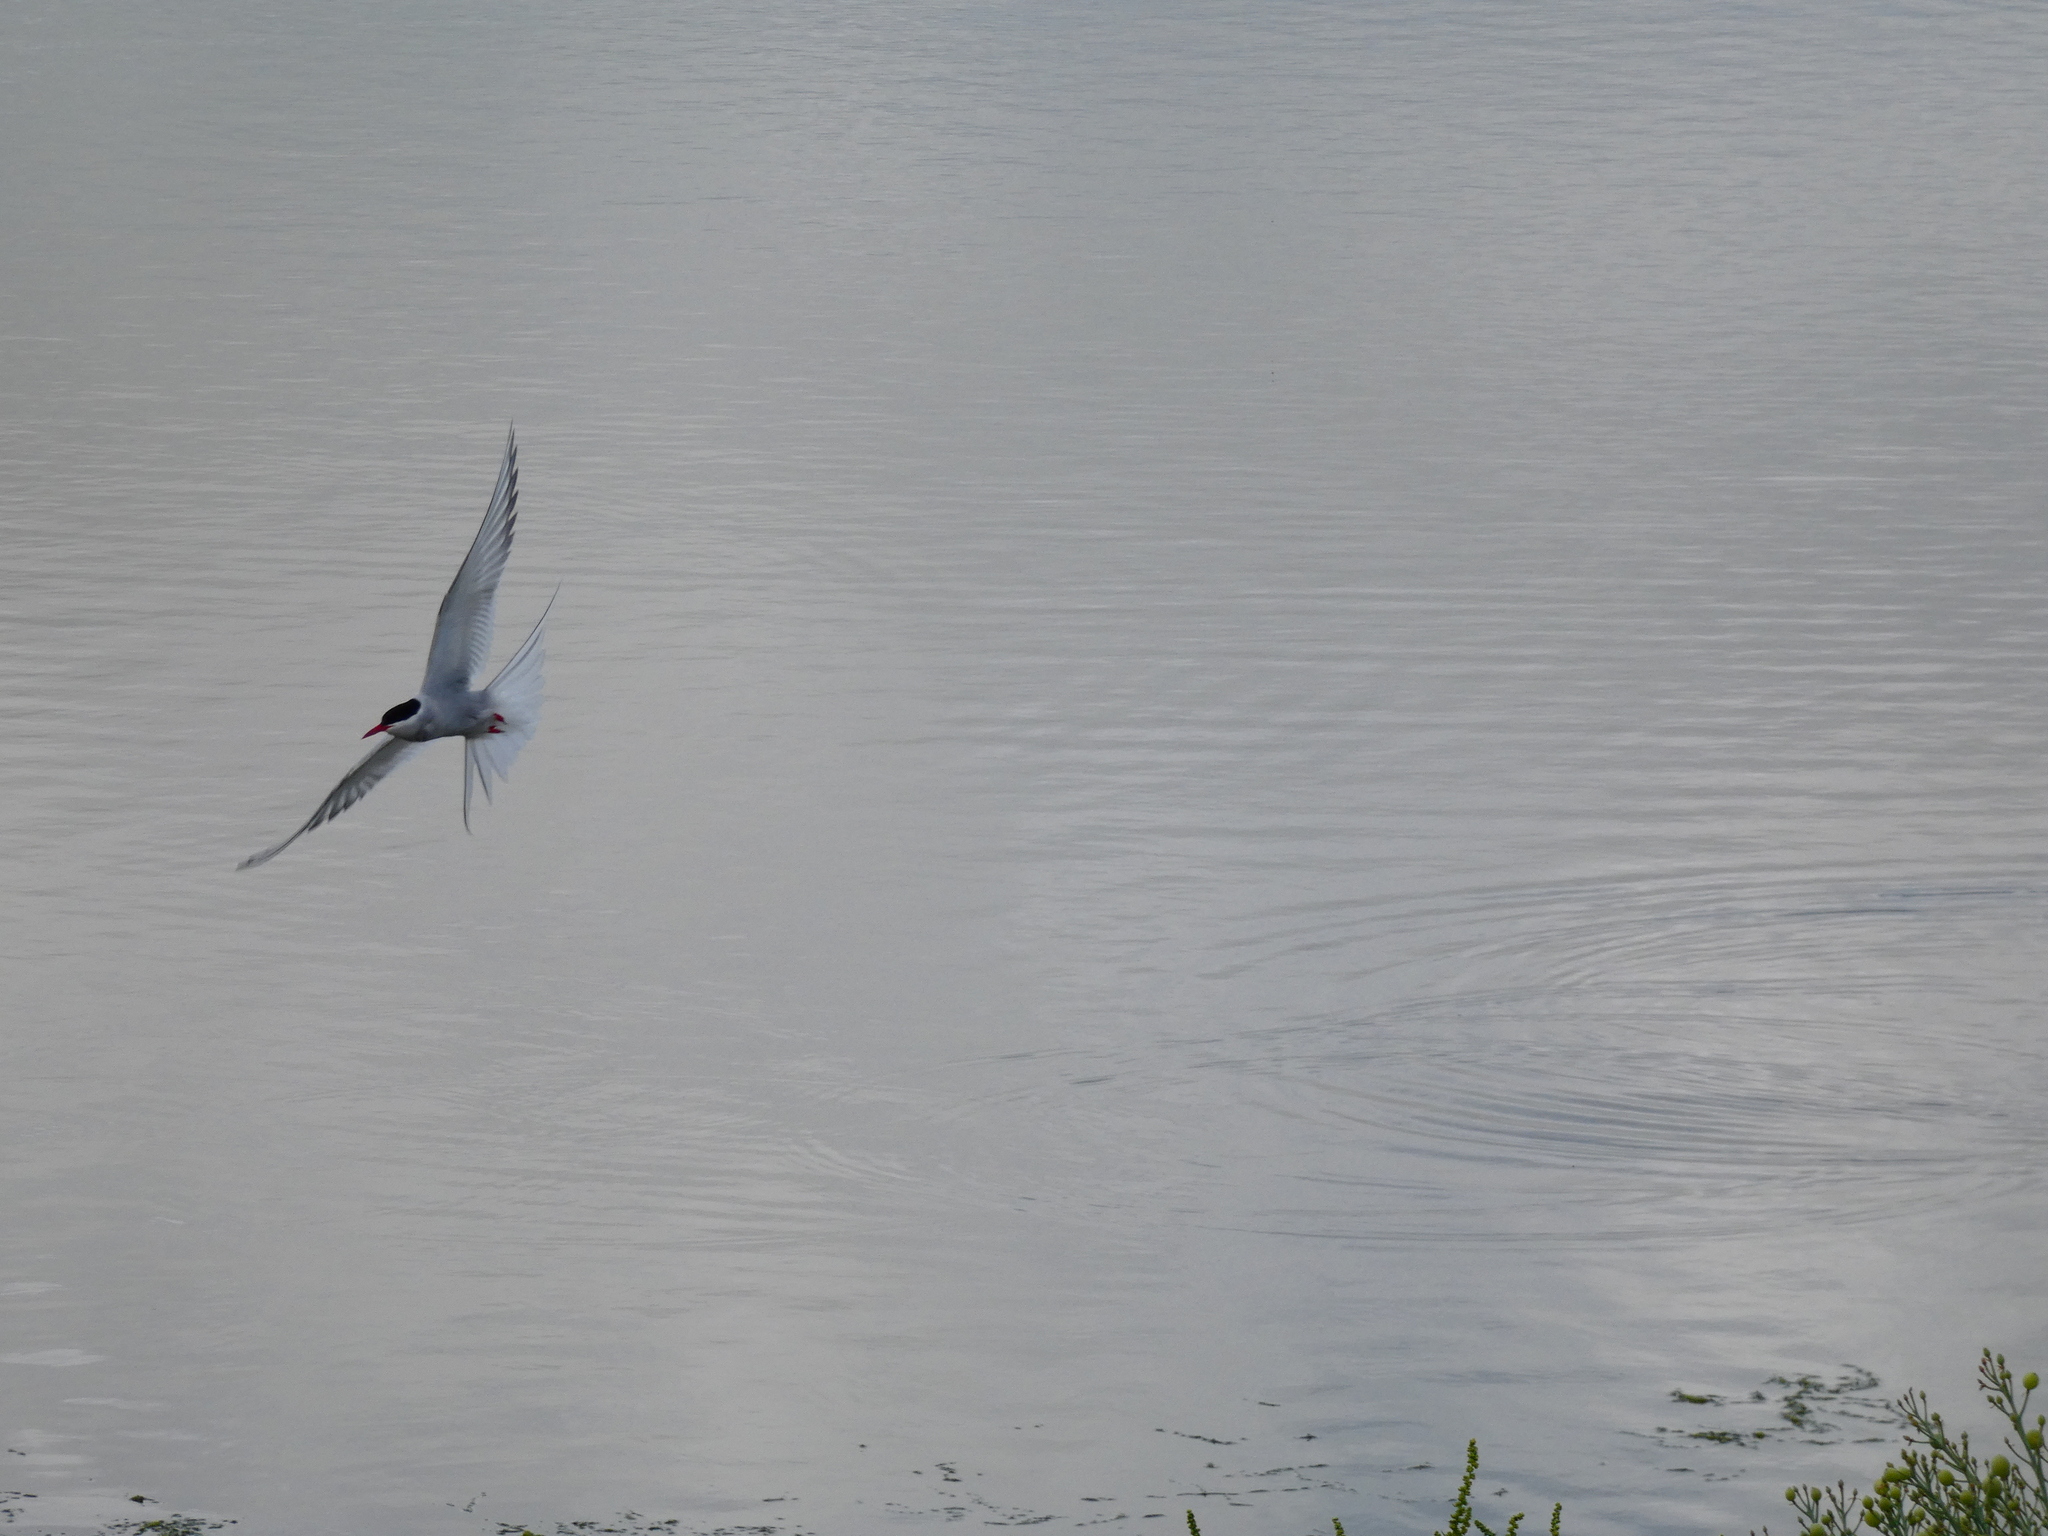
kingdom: Animalia
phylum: Chordata
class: Aves
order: Charadriiformes
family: Laridae
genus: Sterna
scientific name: Sterna paradisaea
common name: Arctic tern
